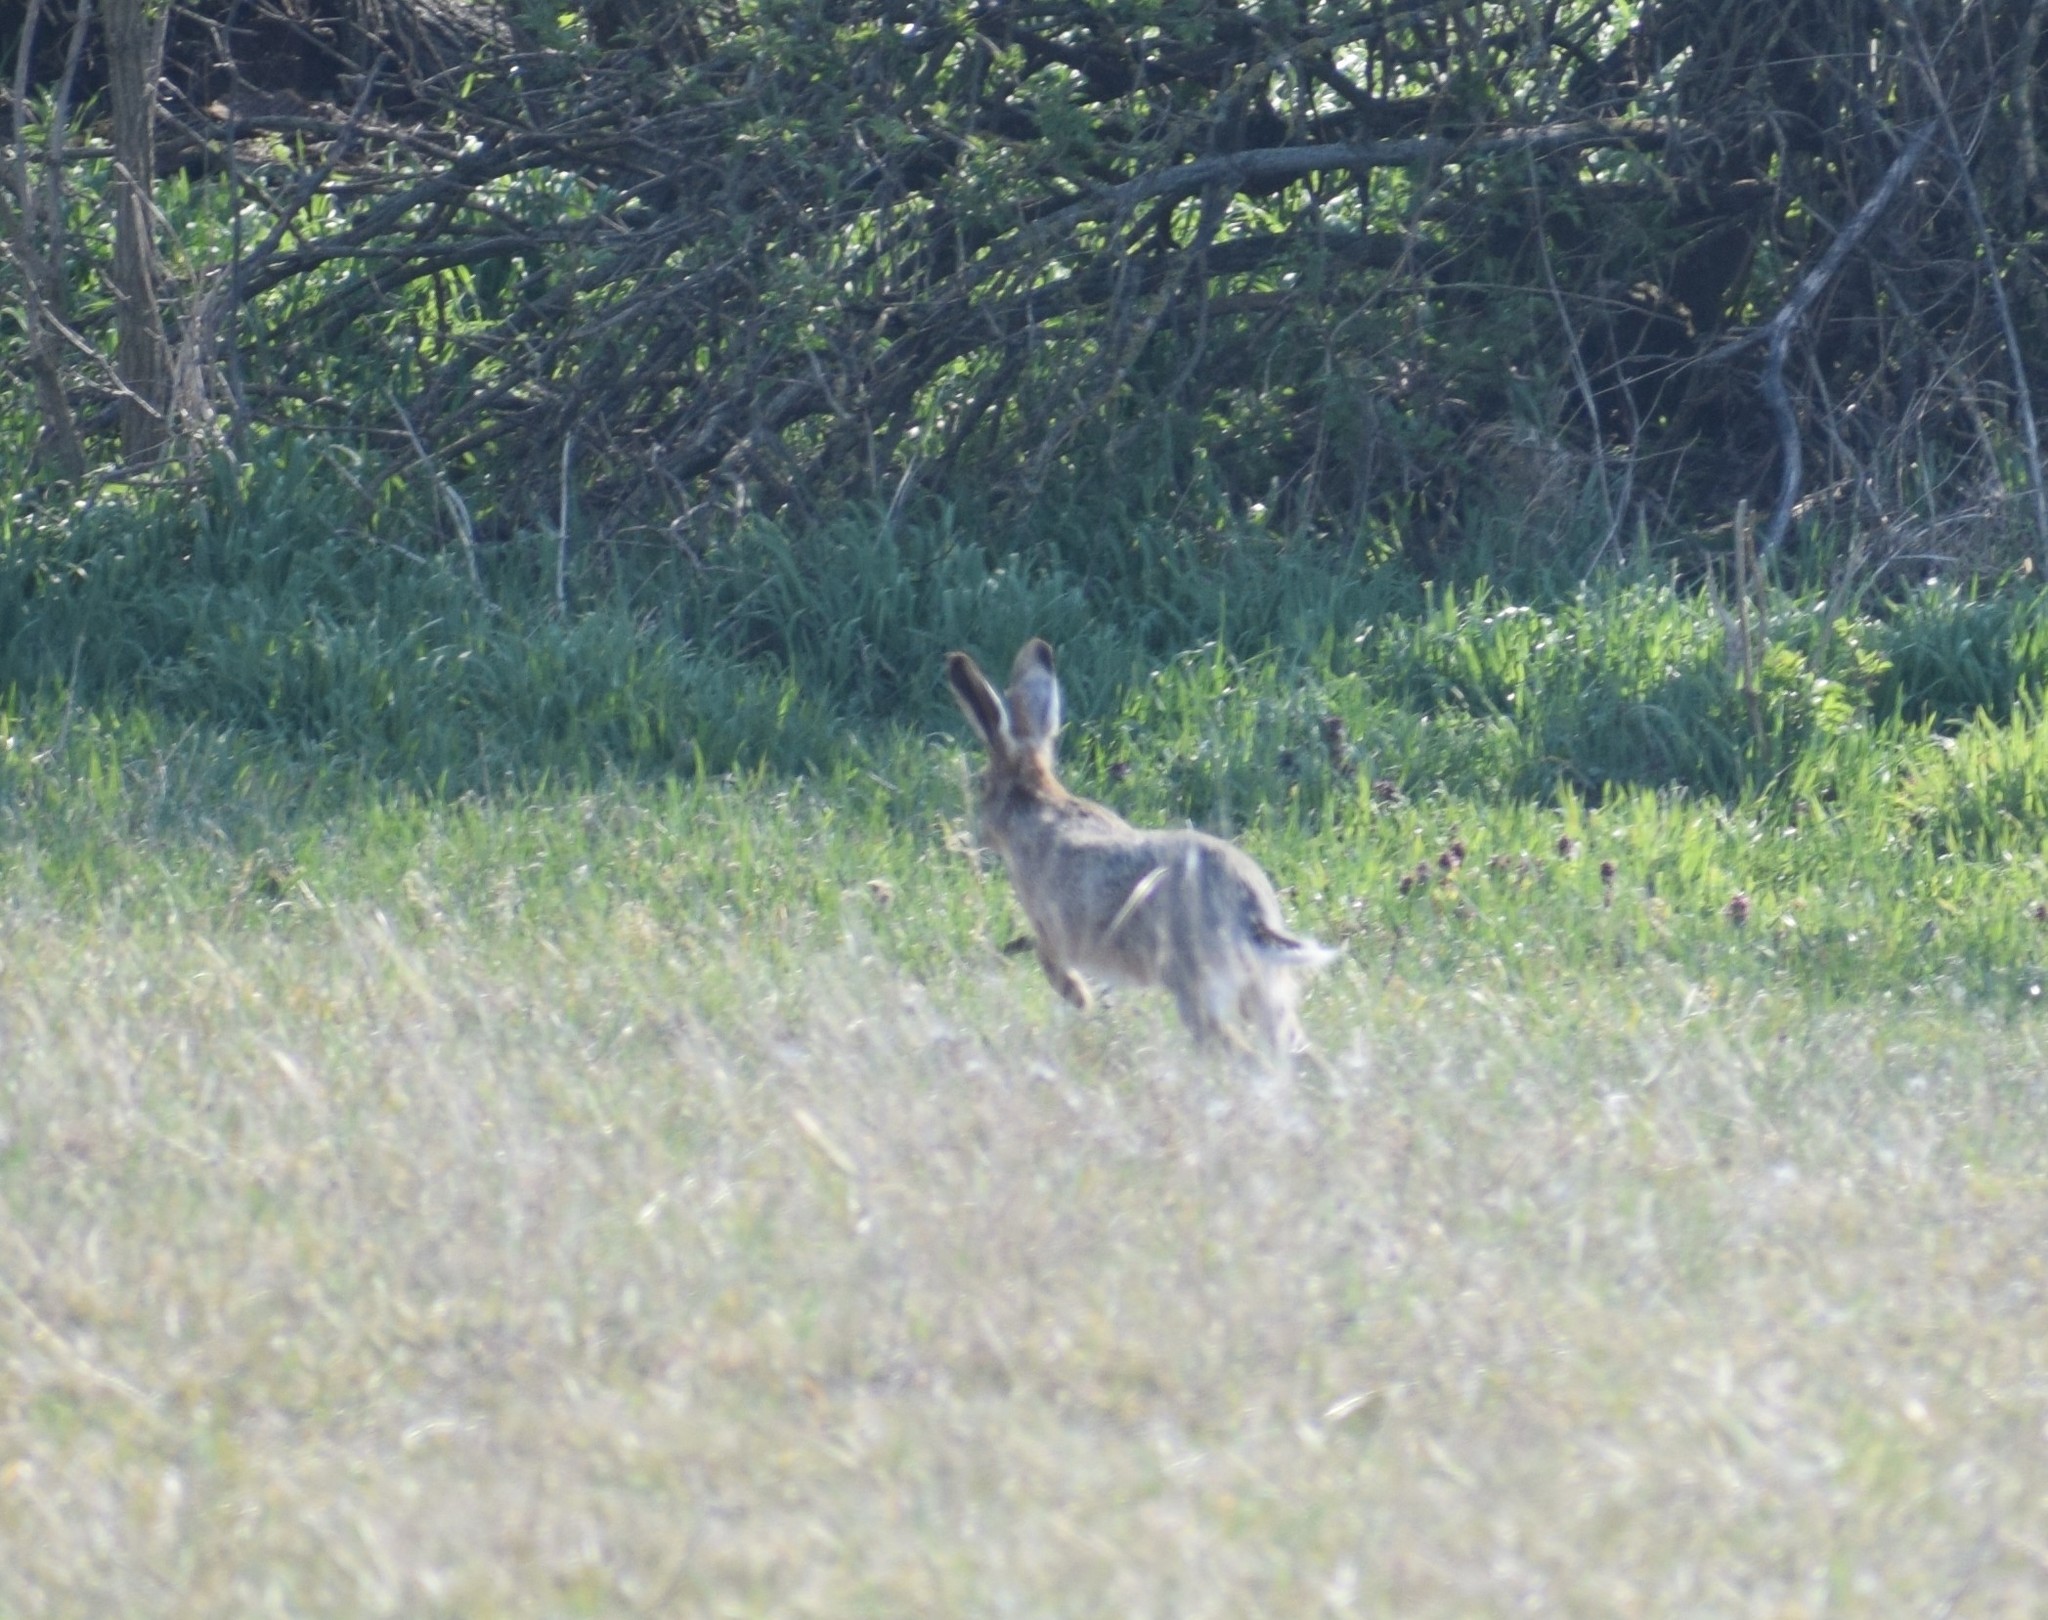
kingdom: Animalia
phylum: Chordata
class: Mammalia
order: Lagomorpha
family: Leporidae
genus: Lepus
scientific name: Lepus europaeus
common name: European hare
